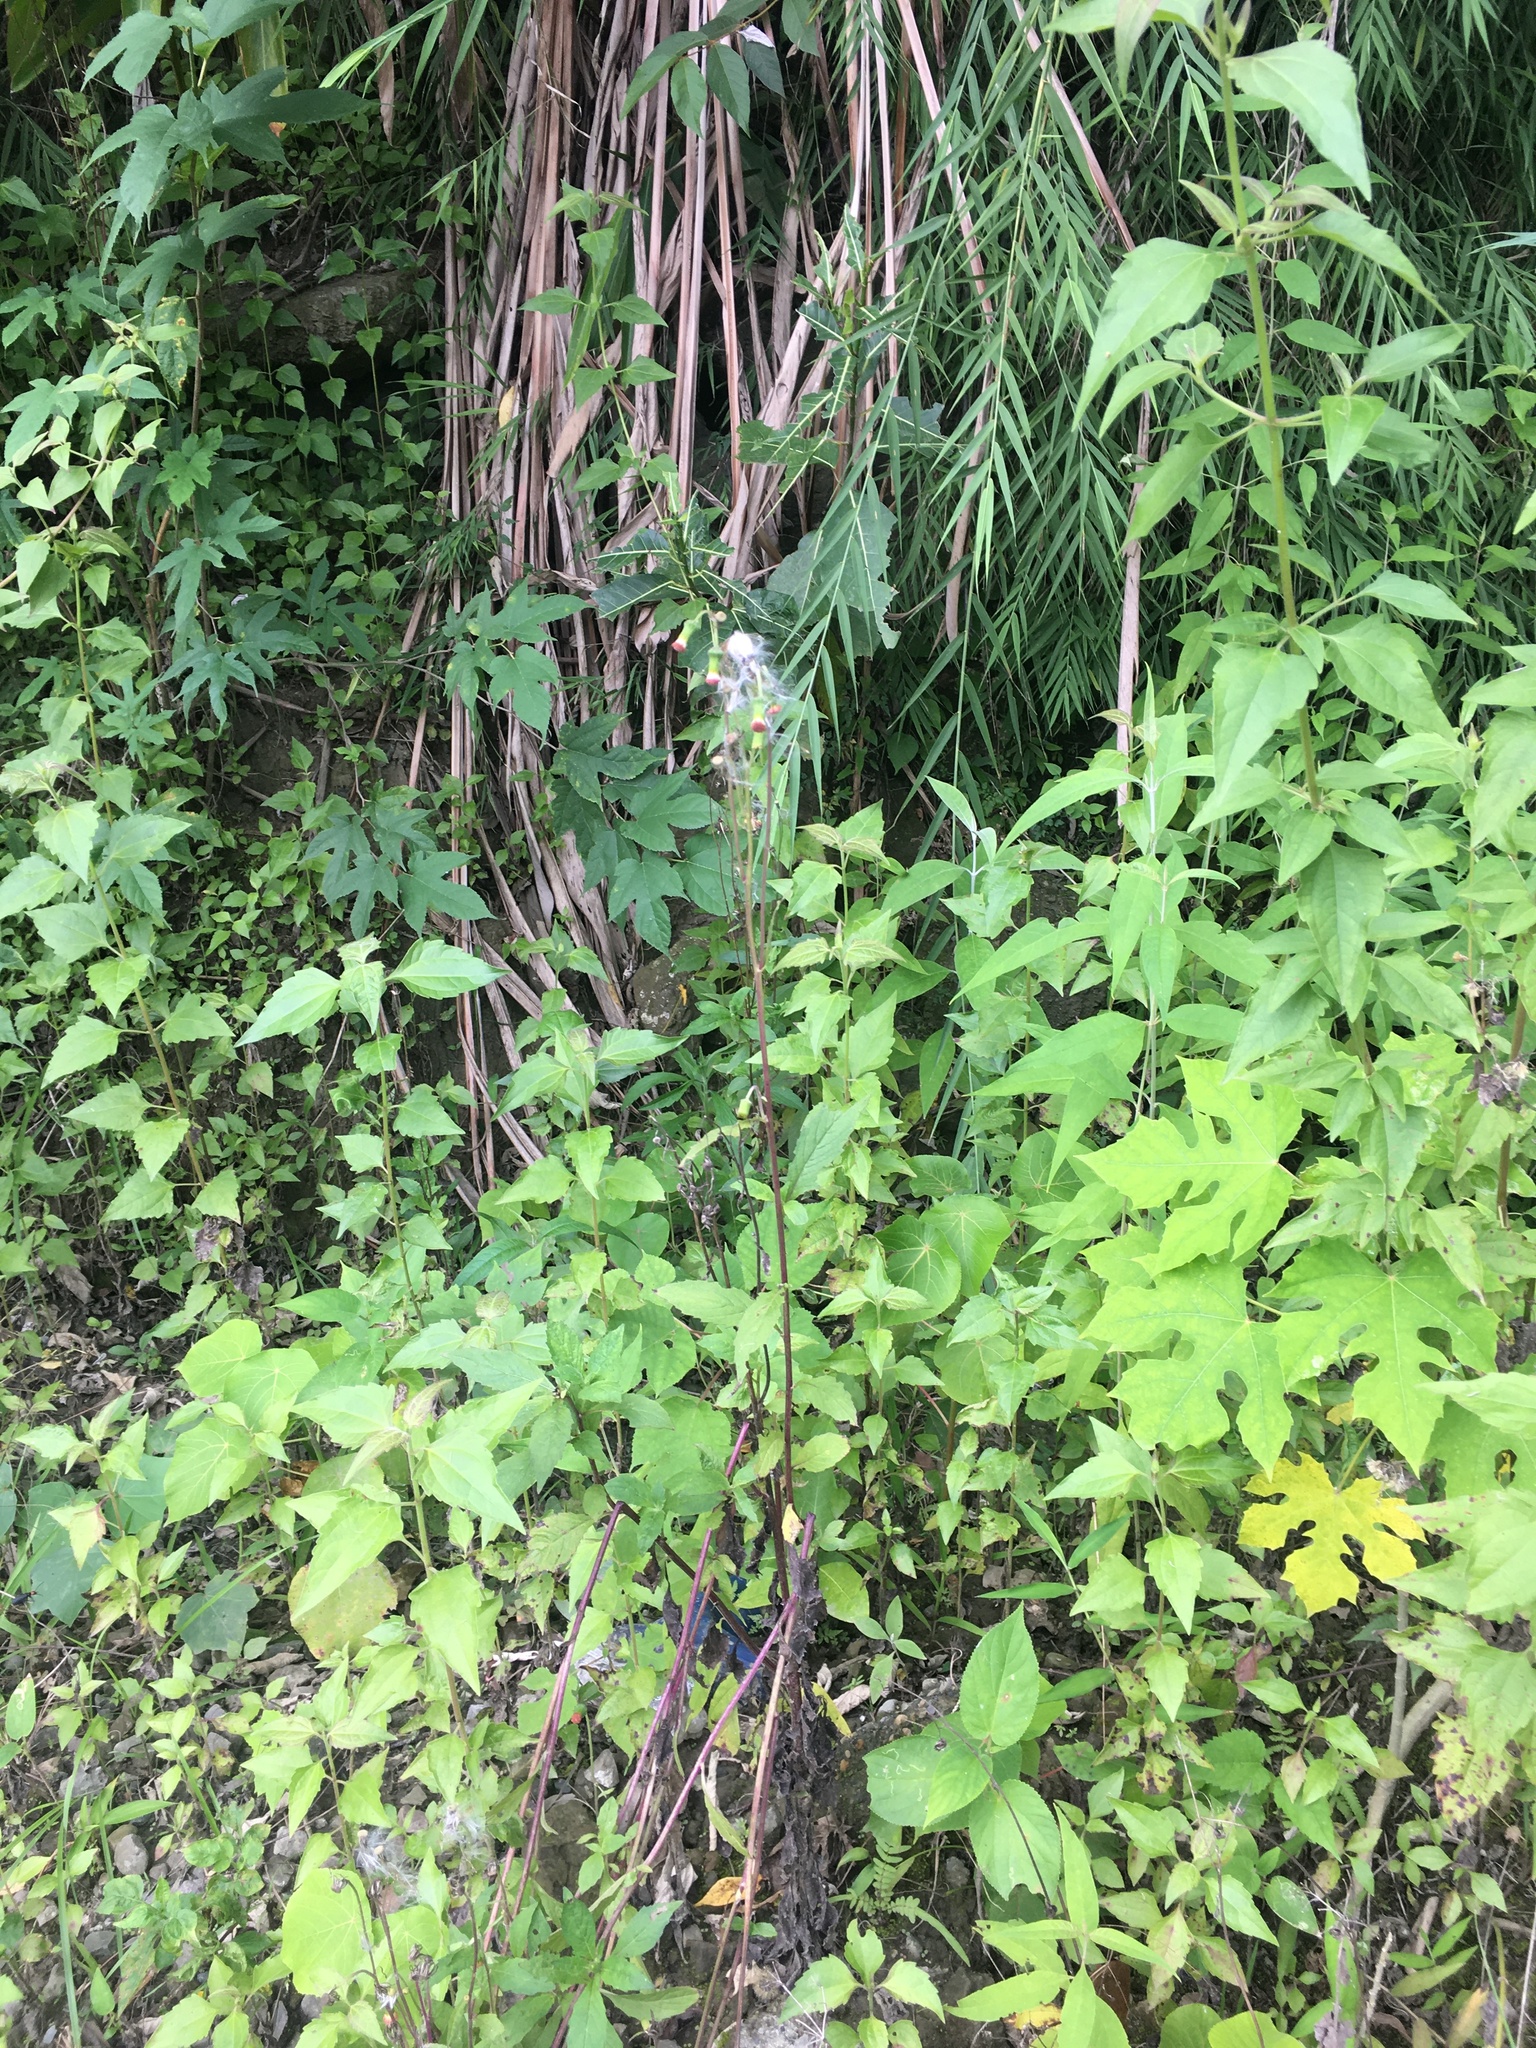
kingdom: Plantae
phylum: Tracheophyta
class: Magnoliopsida
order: Asterales
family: Asteraceae
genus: Crassocephalum
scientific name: Crassocephalum crepidioides
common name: Redflower ragleaf
